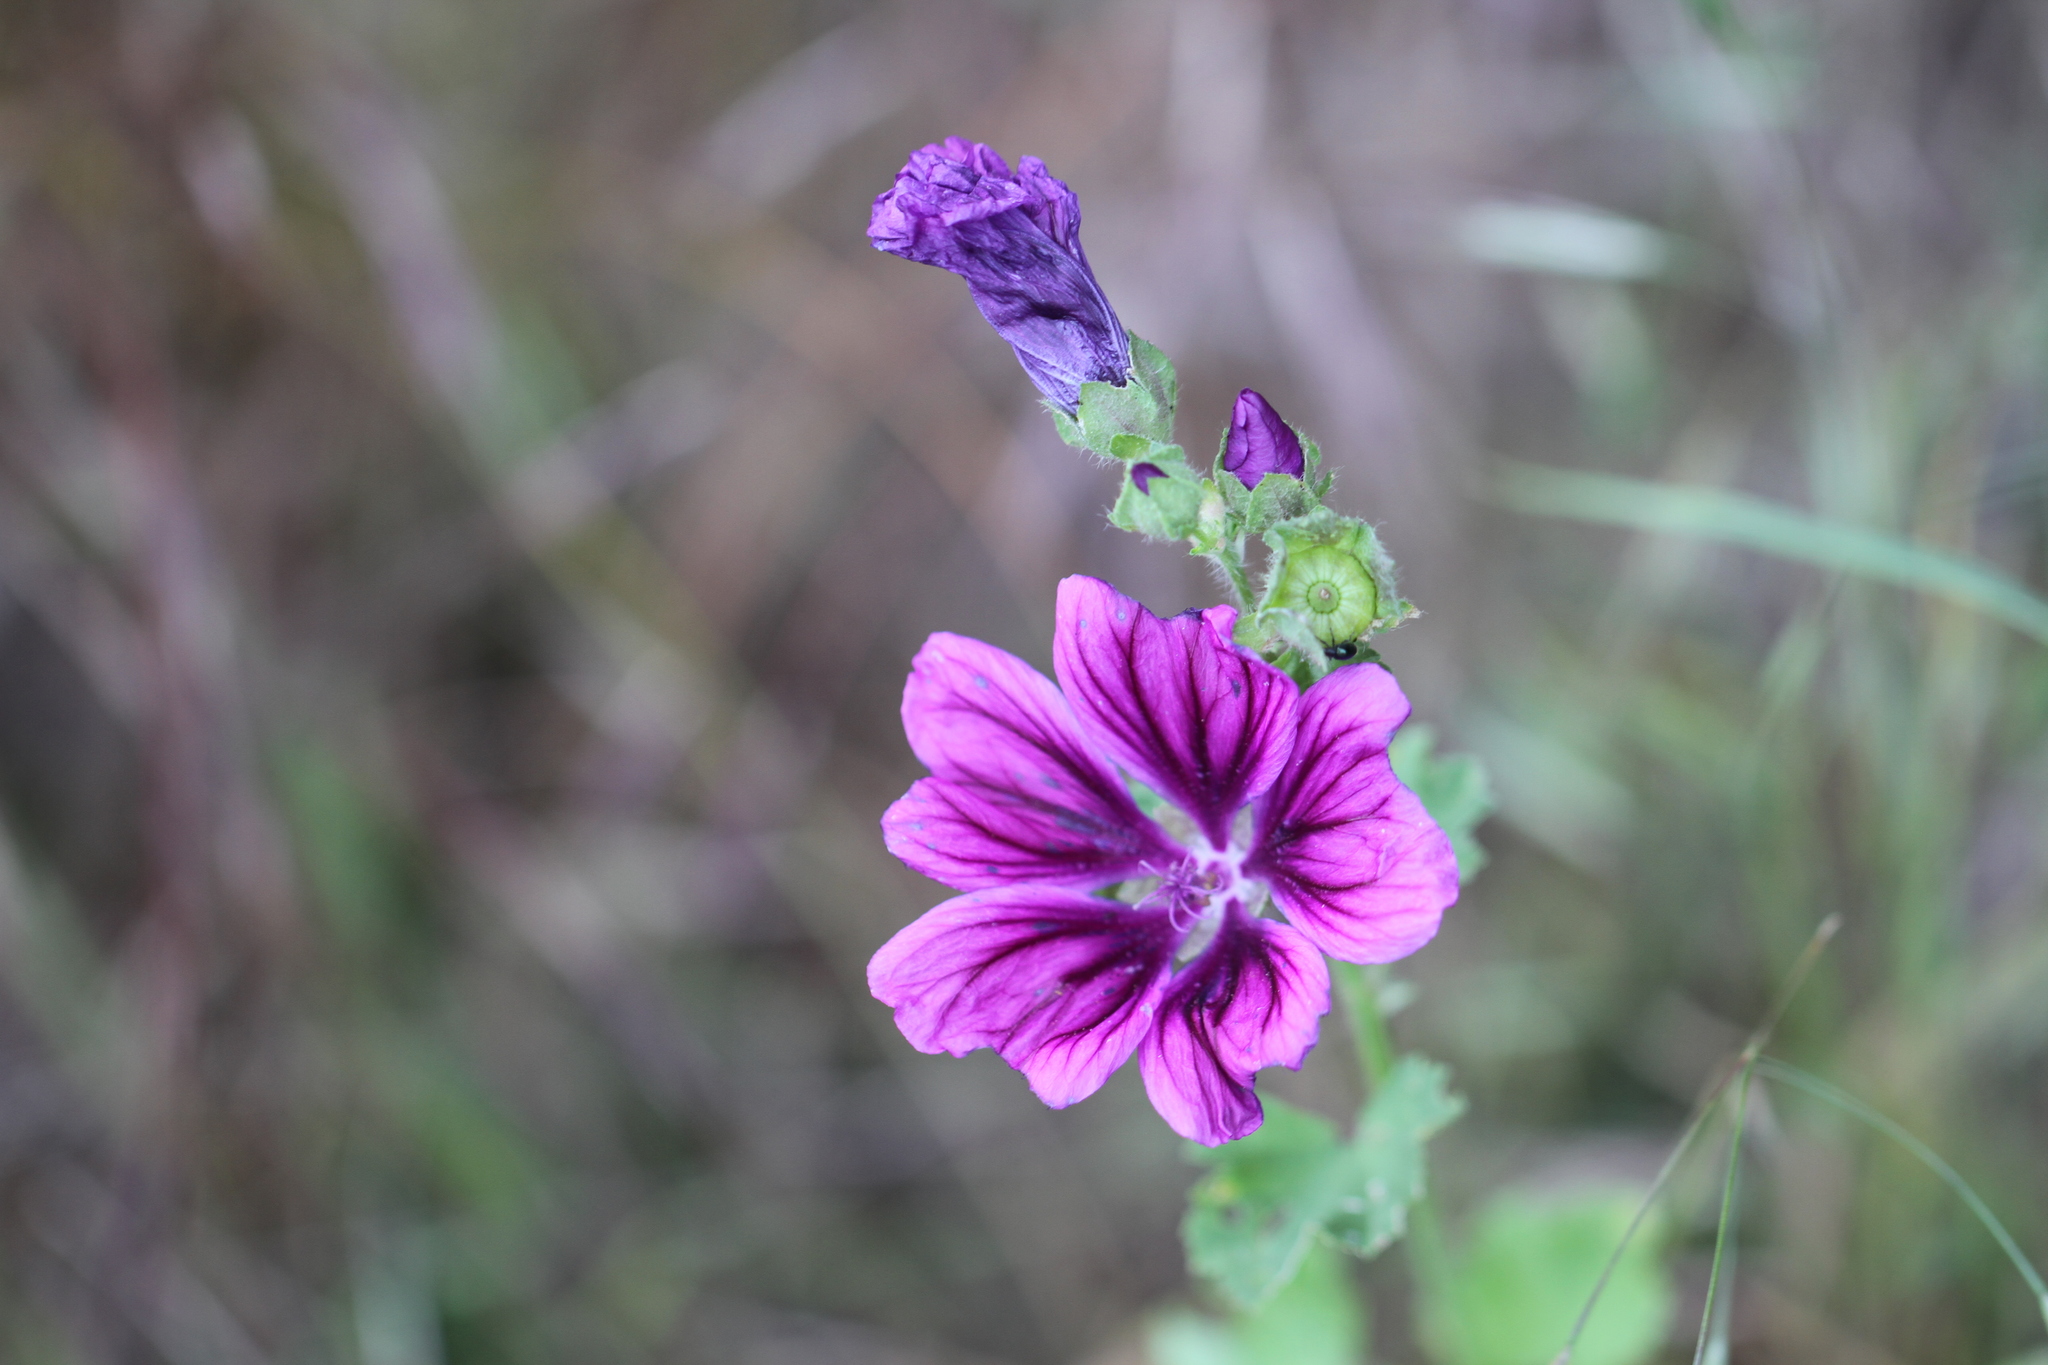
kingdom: Plantae
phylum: Tracheophyta
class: Magnoliopsida
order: Malvales
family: Malvaceae
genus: Malva
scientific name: Malva sylvestris
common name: Common mallow
